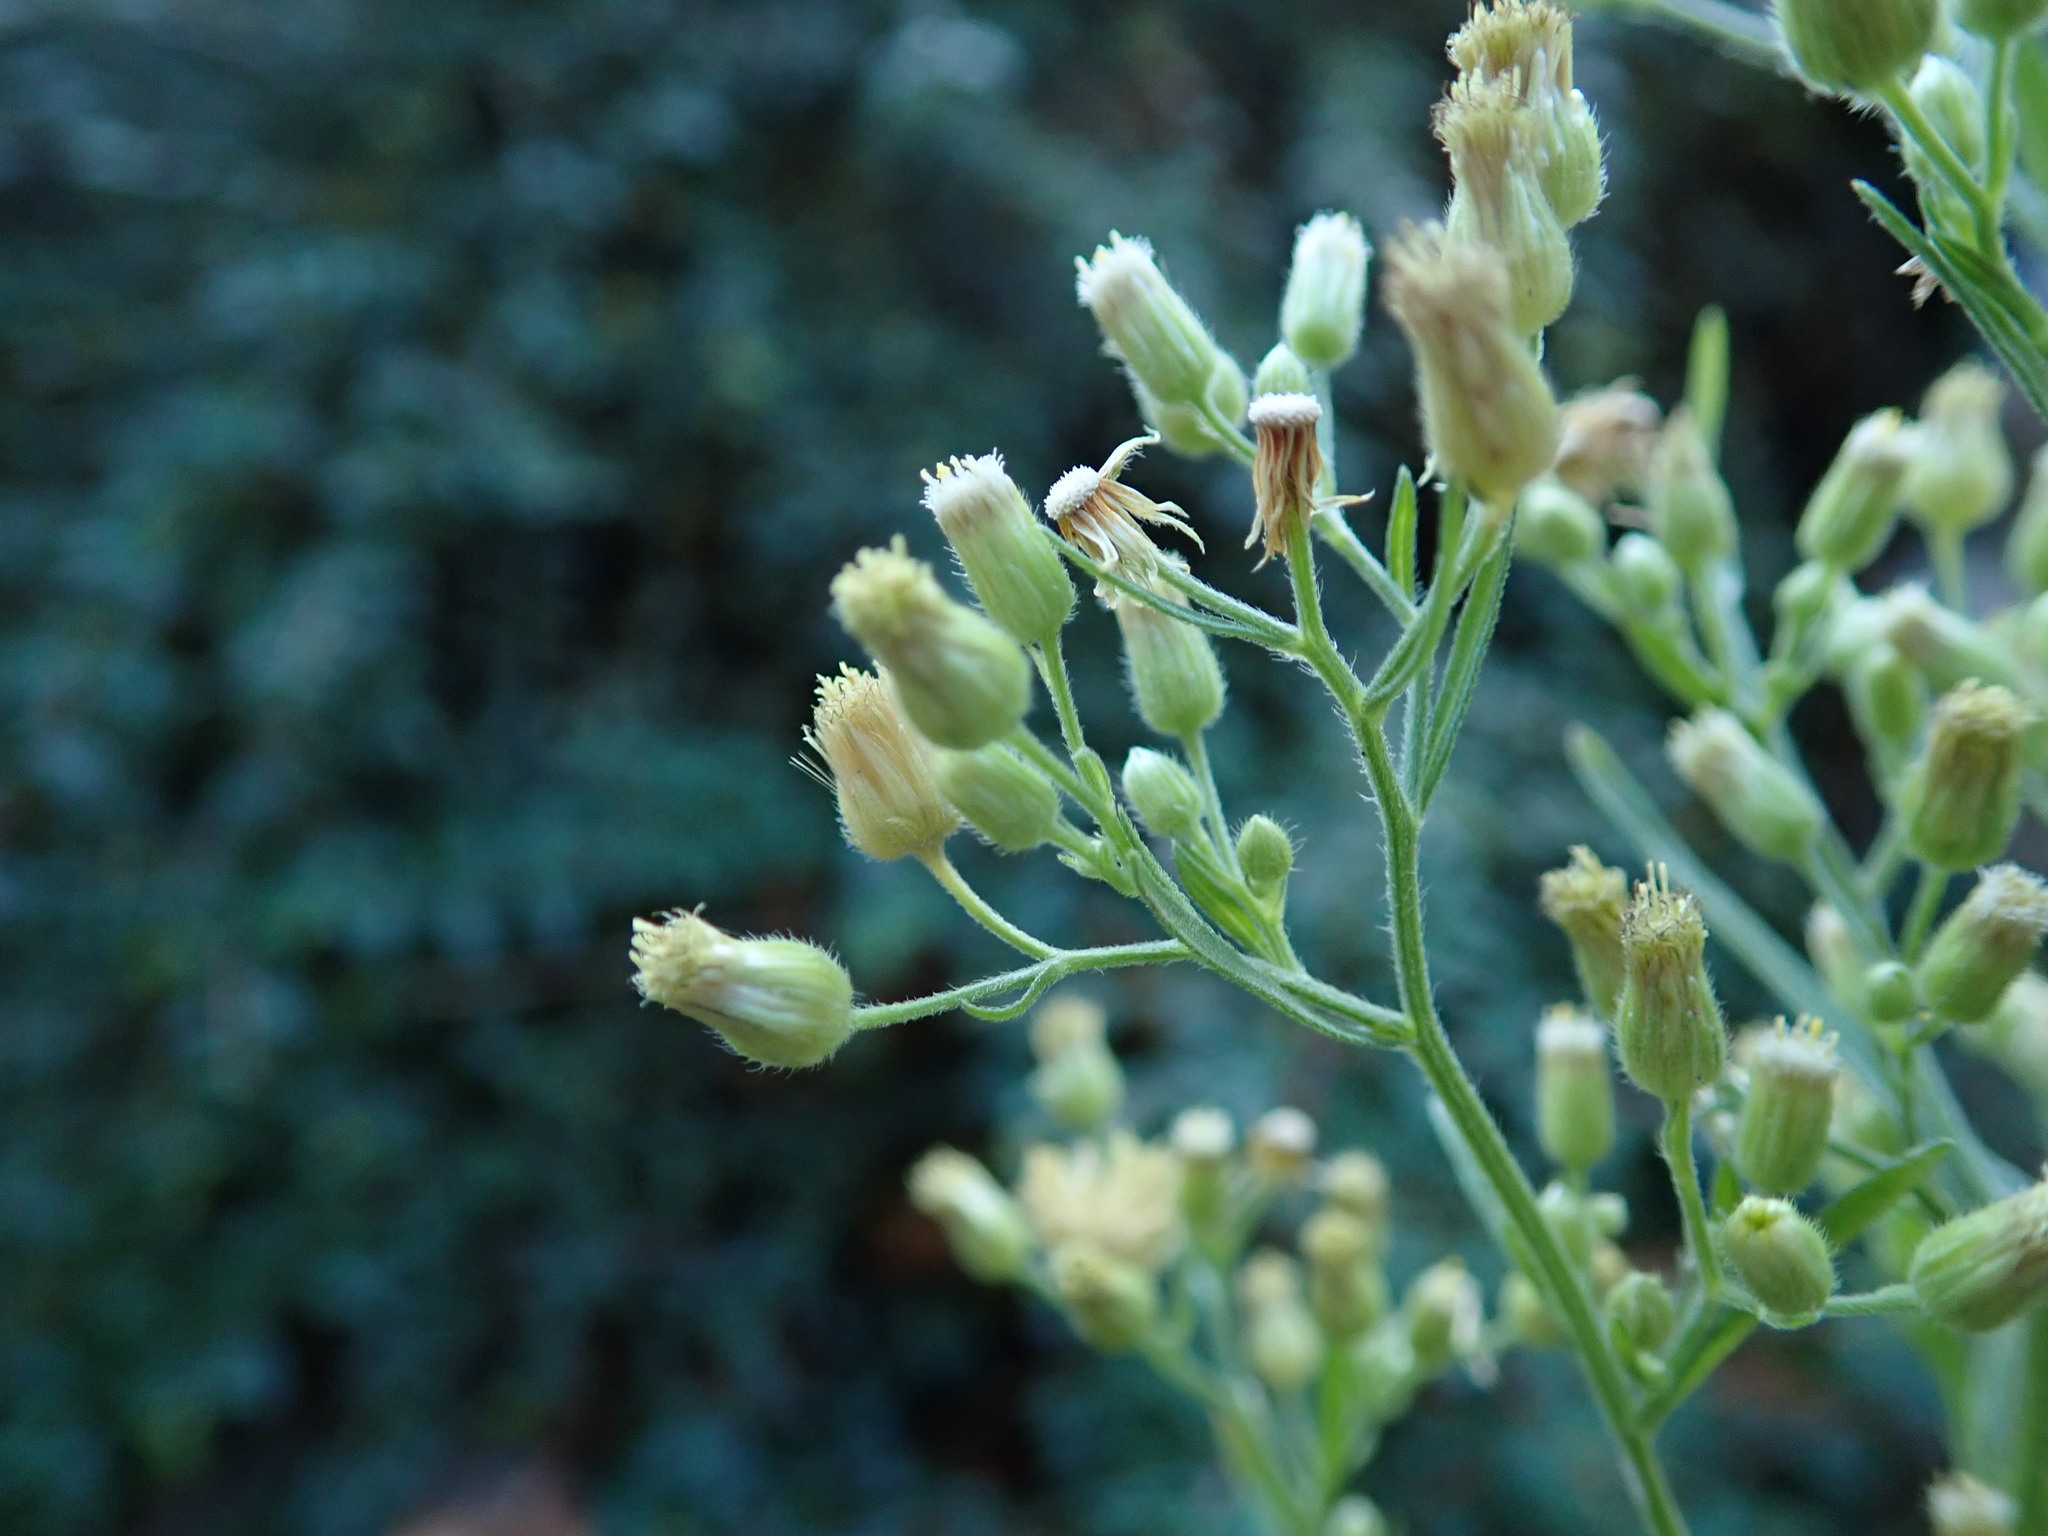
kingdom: Plantae
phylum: Tracheophyta
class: Magnoliopsida
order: Asterales
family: Asteraceae
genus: Erigeron
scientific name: Erigeron sumatrensis
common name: Daisy
